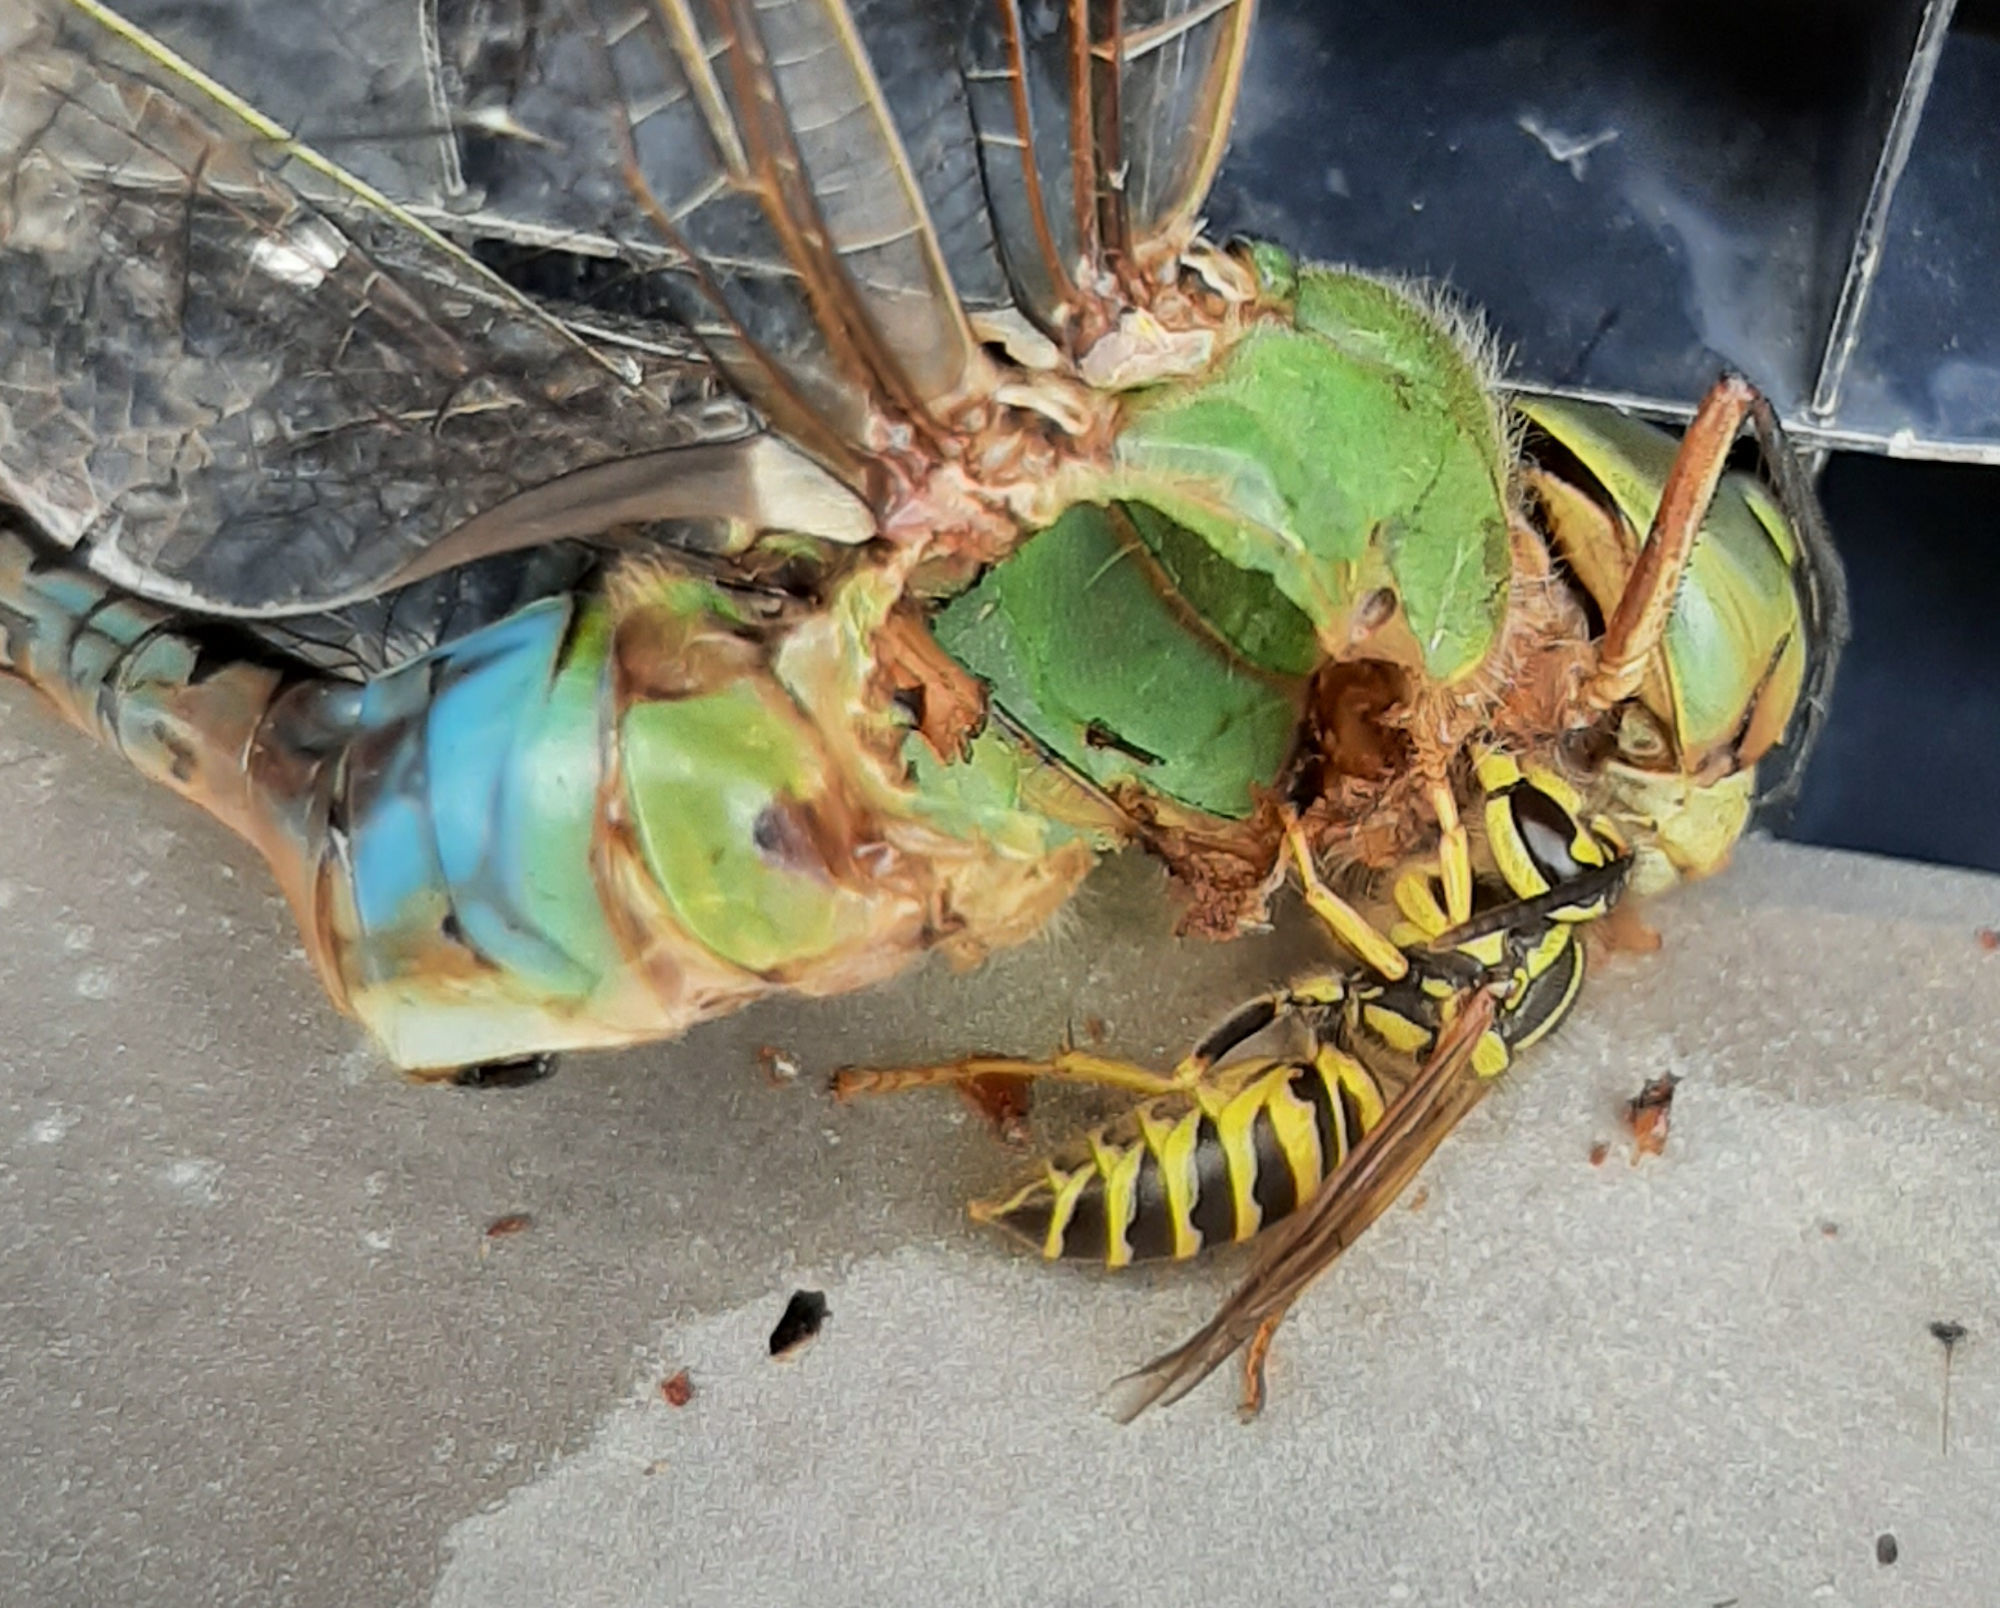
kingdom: Animalia
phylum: Arthropoda
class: Insecta
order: Hymenoptera
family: Vespidae
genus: Vespula
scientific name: Vespula squamosa
